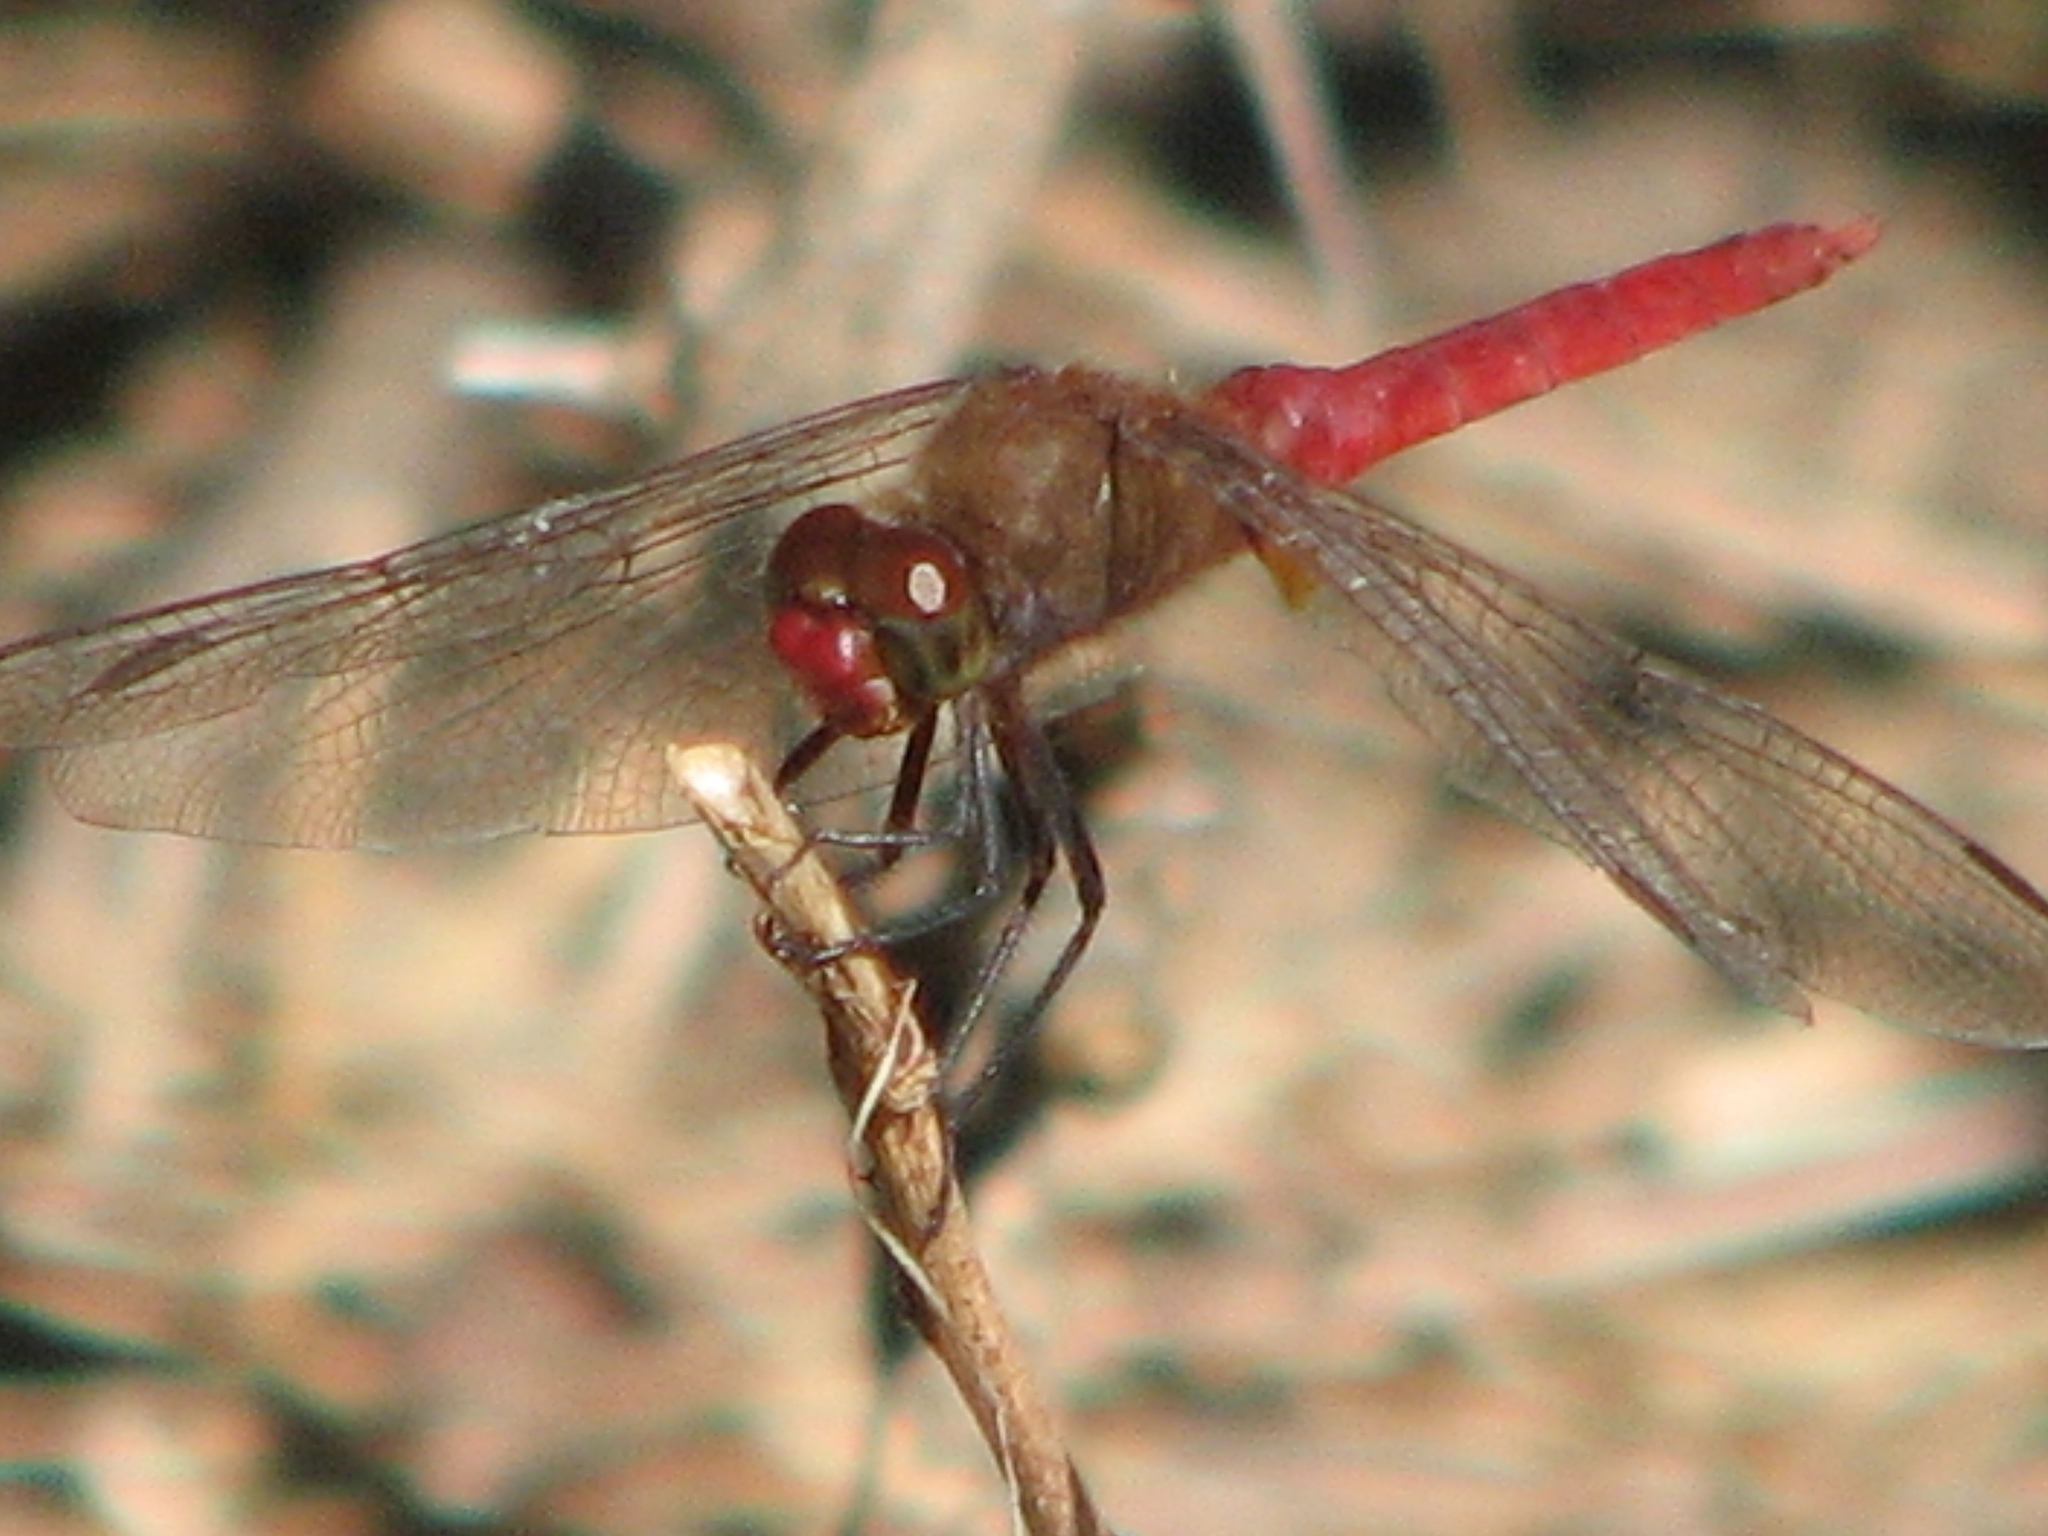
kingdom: Animalia
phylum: Arthropoda
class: Insecta
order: Odonata
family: Libellulidae
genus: Brachymesia
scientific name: Brachymesia furcata
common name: Red-taled pennant
